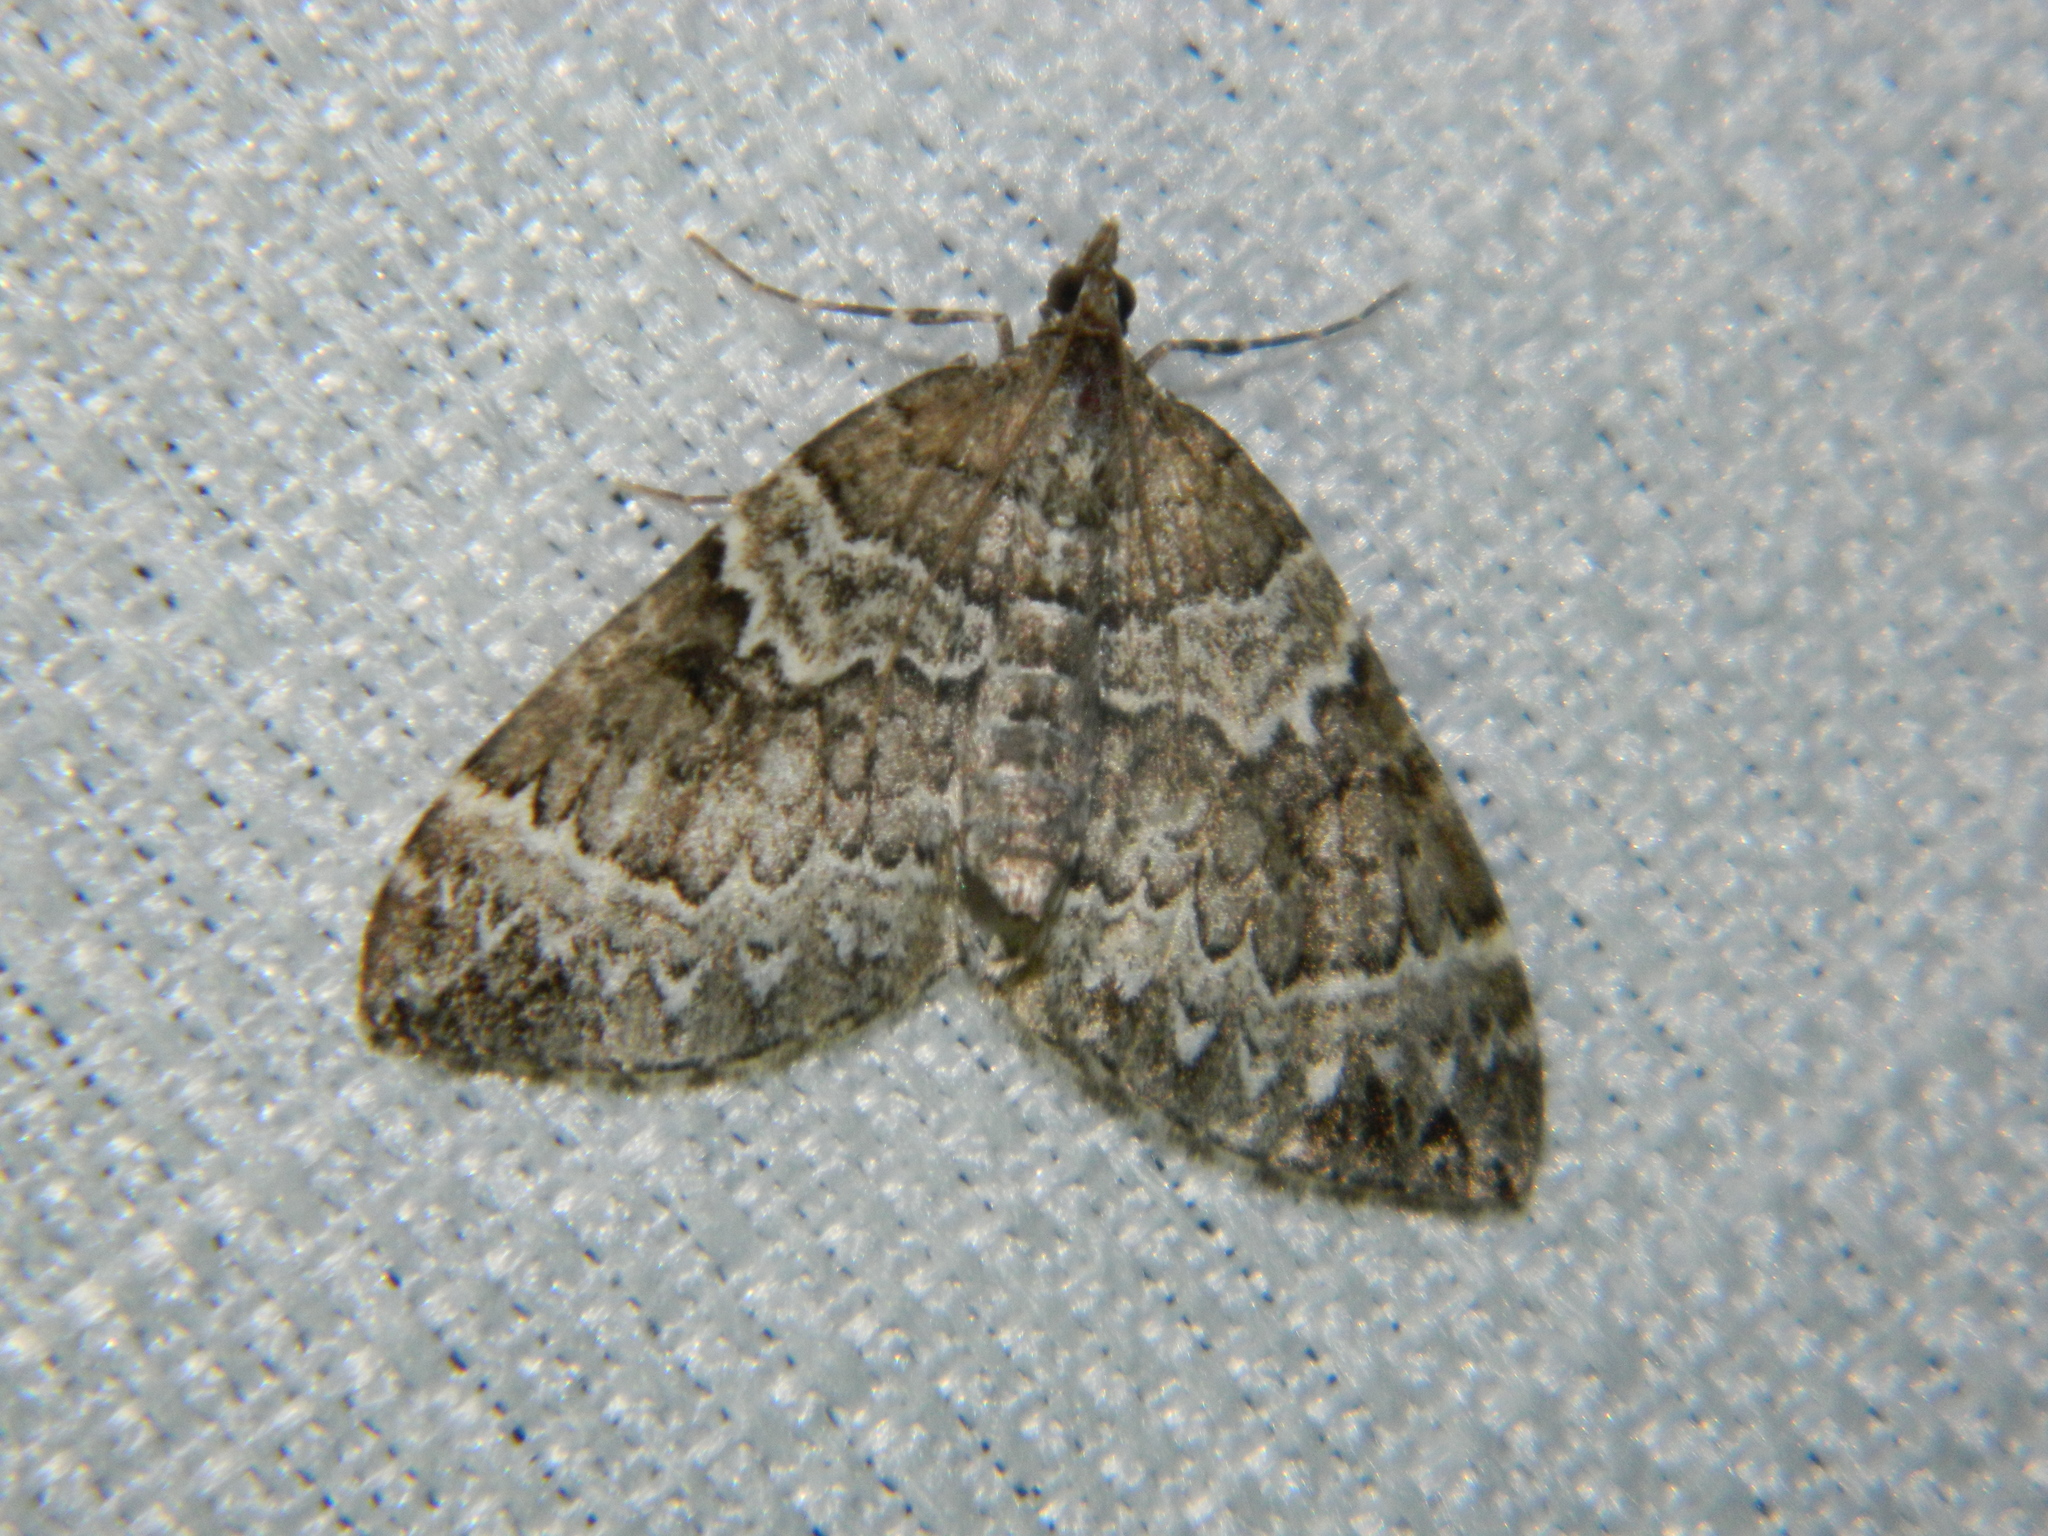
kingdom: Animalia
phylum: Arthropoda
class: Insecta
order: Lepidoptera
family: Geometridae
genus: Eulithis
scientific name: Eulithis explanata
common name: White eulithis
